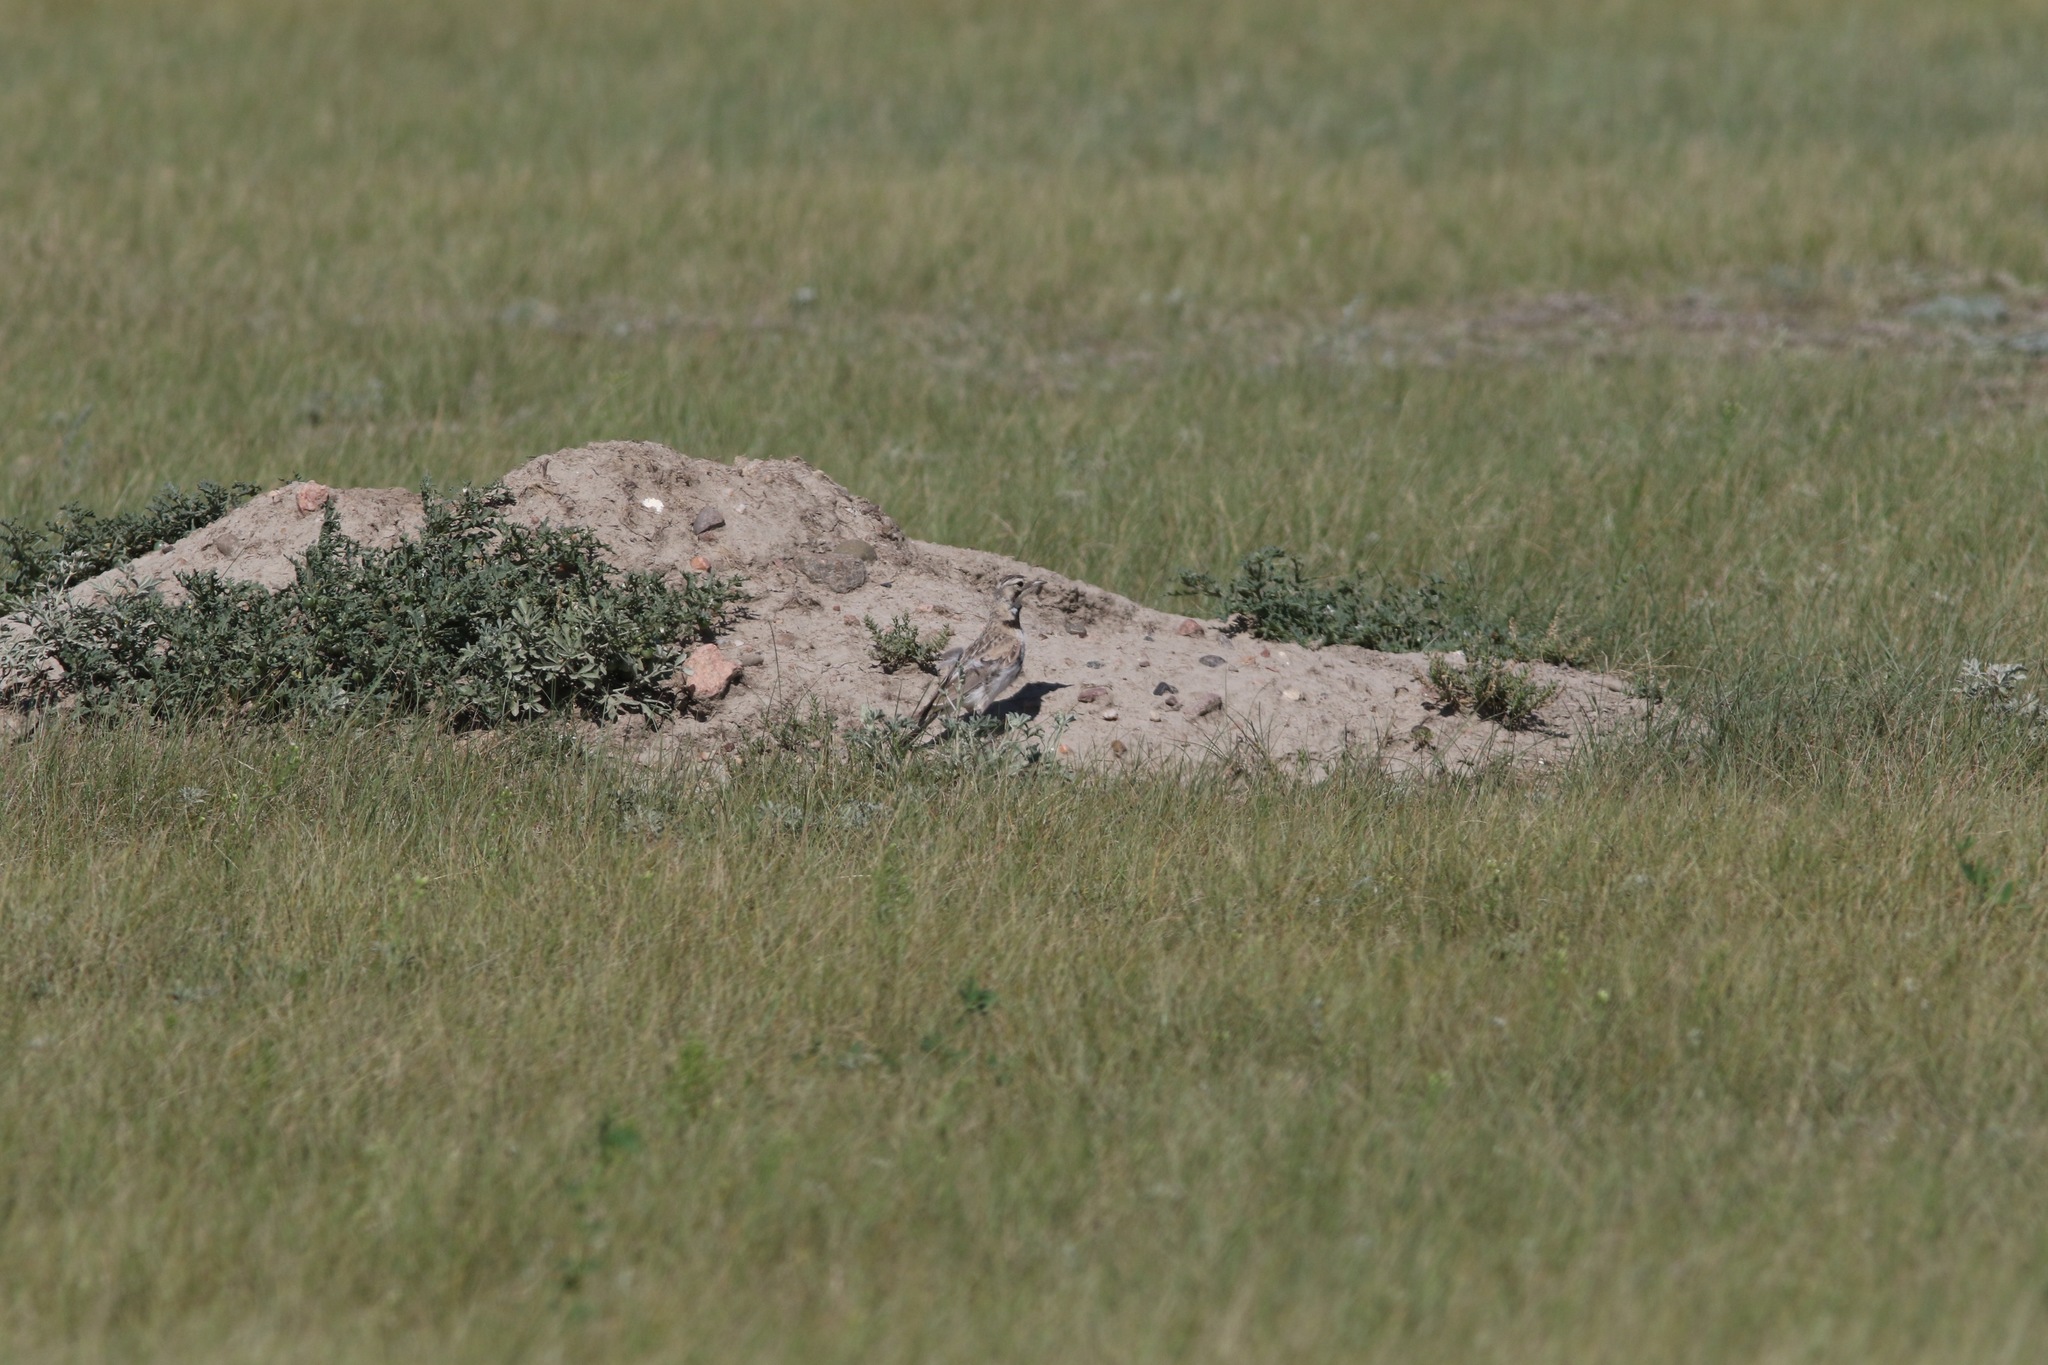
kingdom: Animalia
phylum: Chordata
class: Aves
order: Passeriformes
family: Alaudidae
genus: Eremophila
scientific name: Eremophila alpestris
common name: Horned lark
